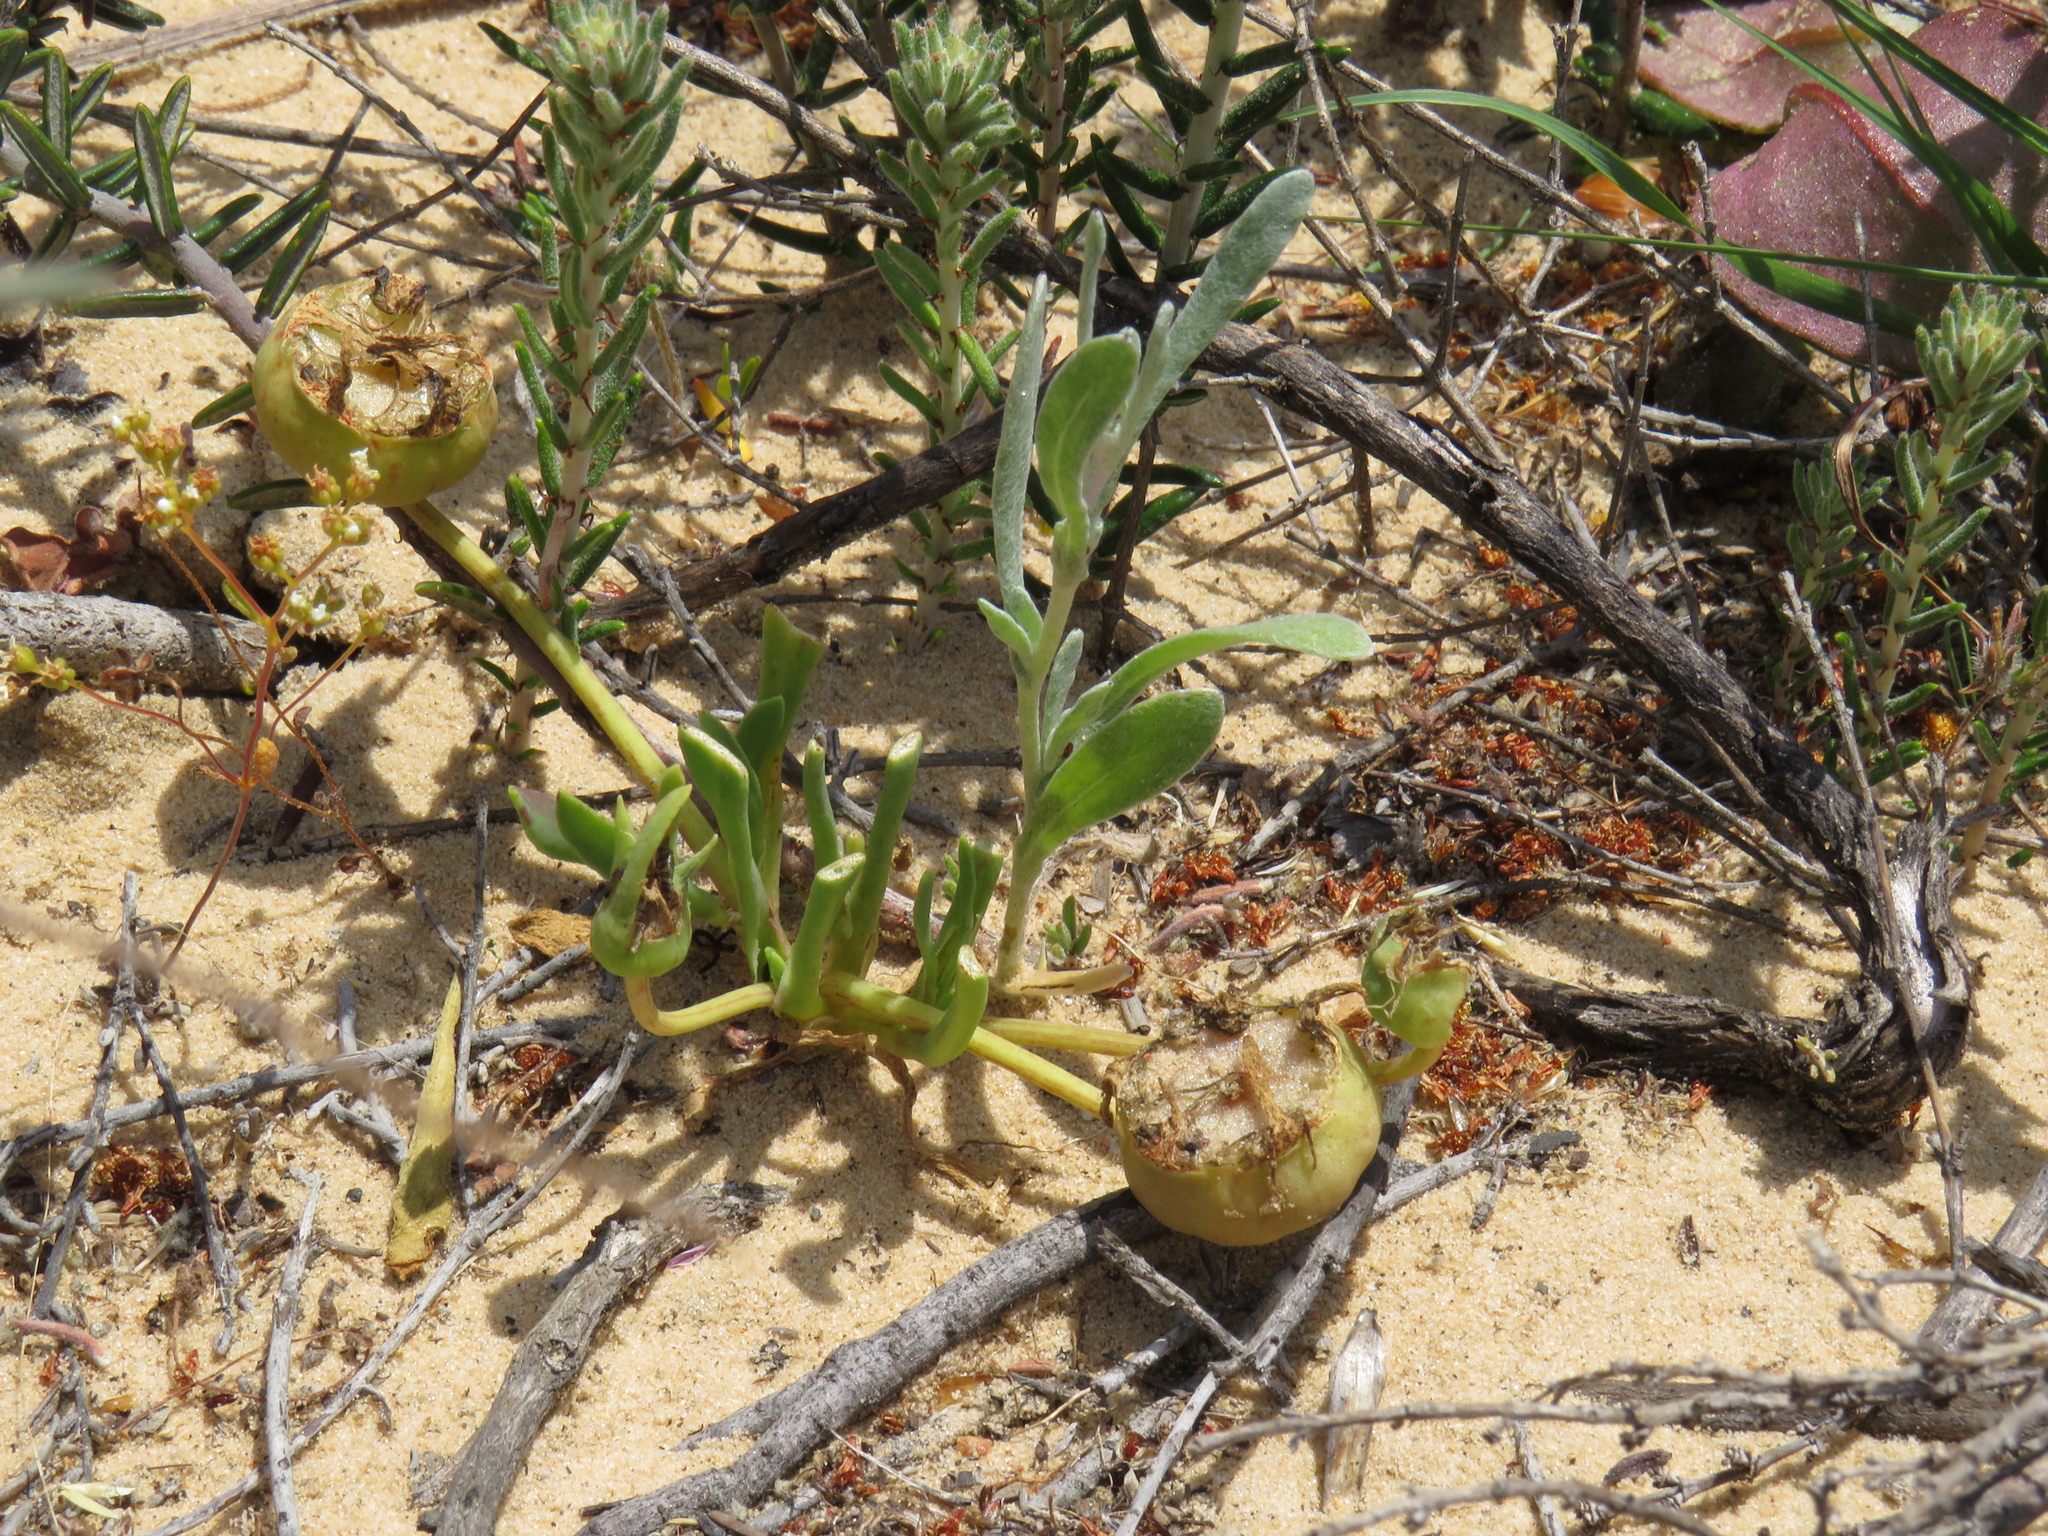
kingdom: Plantae
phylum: Tracheophyta
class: Magnoliopsida
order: Caryophyllales
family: Aizoaceae
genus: Hymenogyne
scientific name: Hymenogyne glabra
